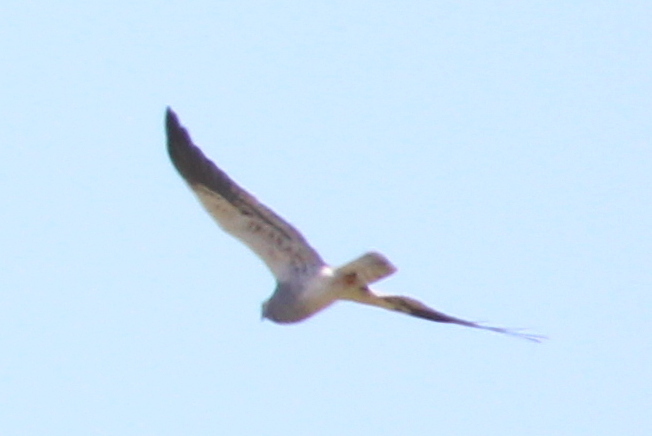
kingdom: Animalia
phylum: Chordata
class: Aves
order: Accipitriformes
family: Accipitridae
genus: Circus
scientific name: Circus pygargus
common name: Montagu's harrier
